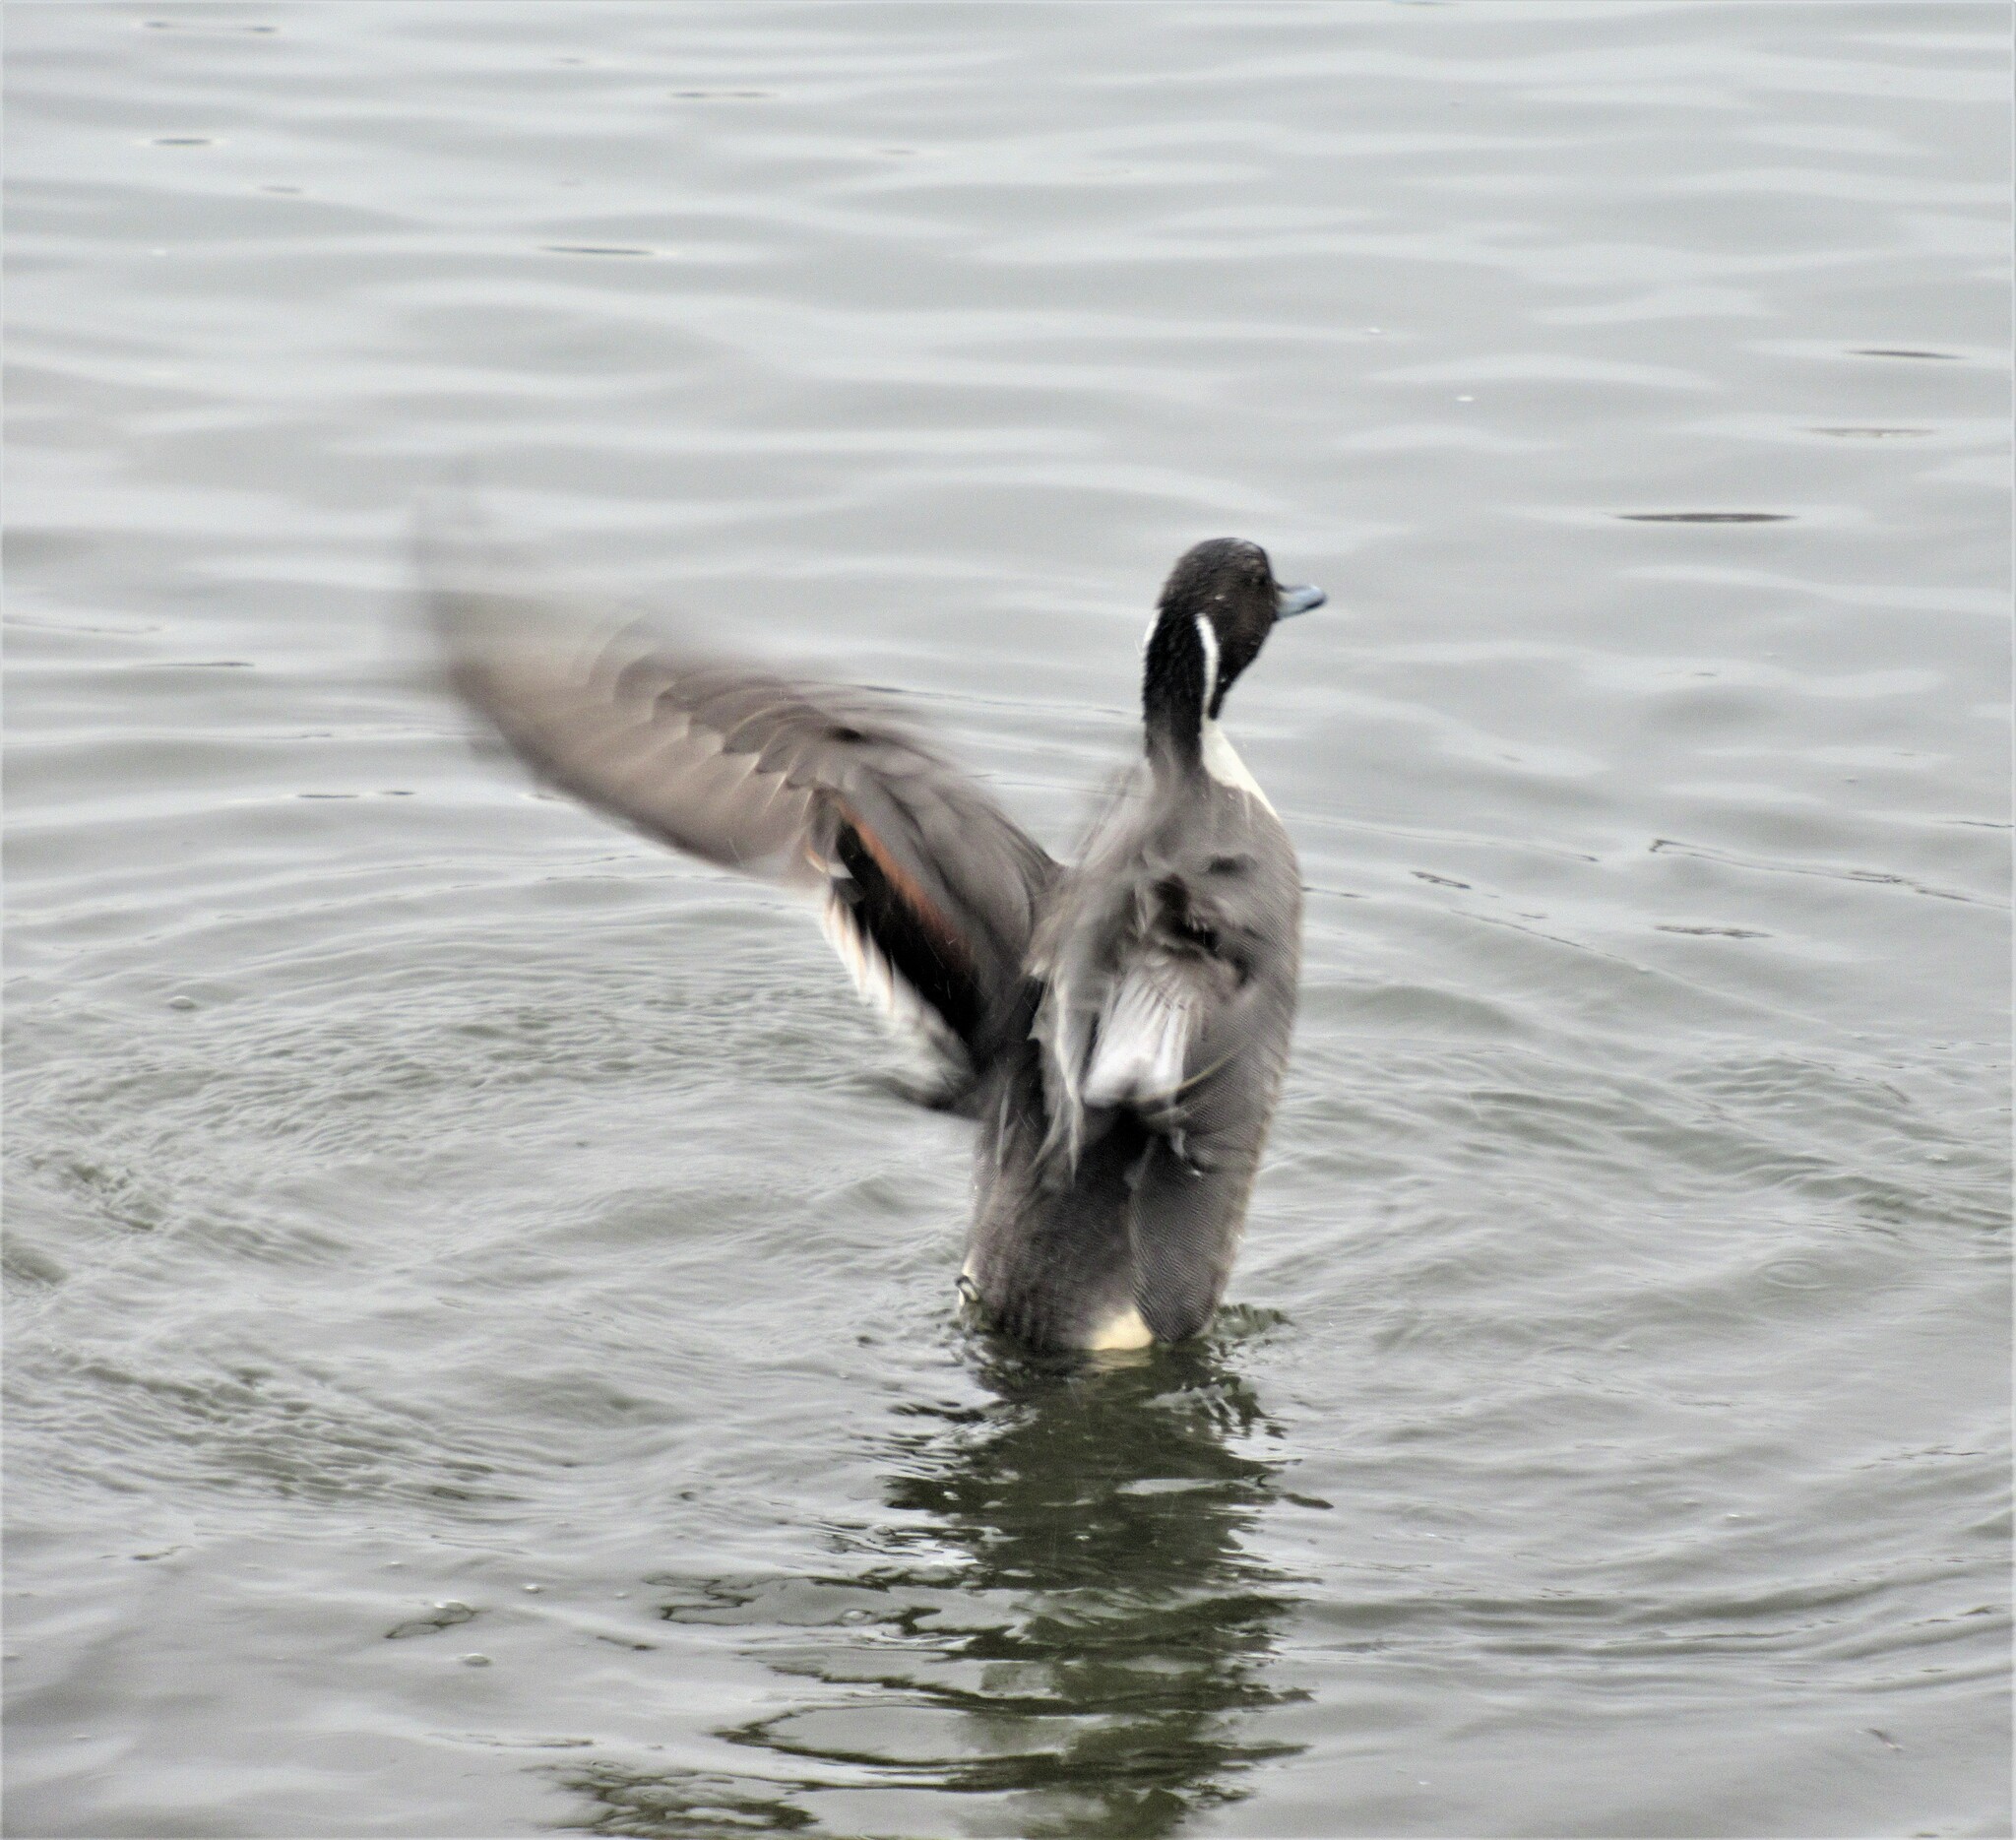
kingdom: Animalia
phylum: Chordata
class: Aves
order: Anseriformes
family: Anatidae
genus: Anas
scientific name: Anas acuta
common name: Northern pintail
